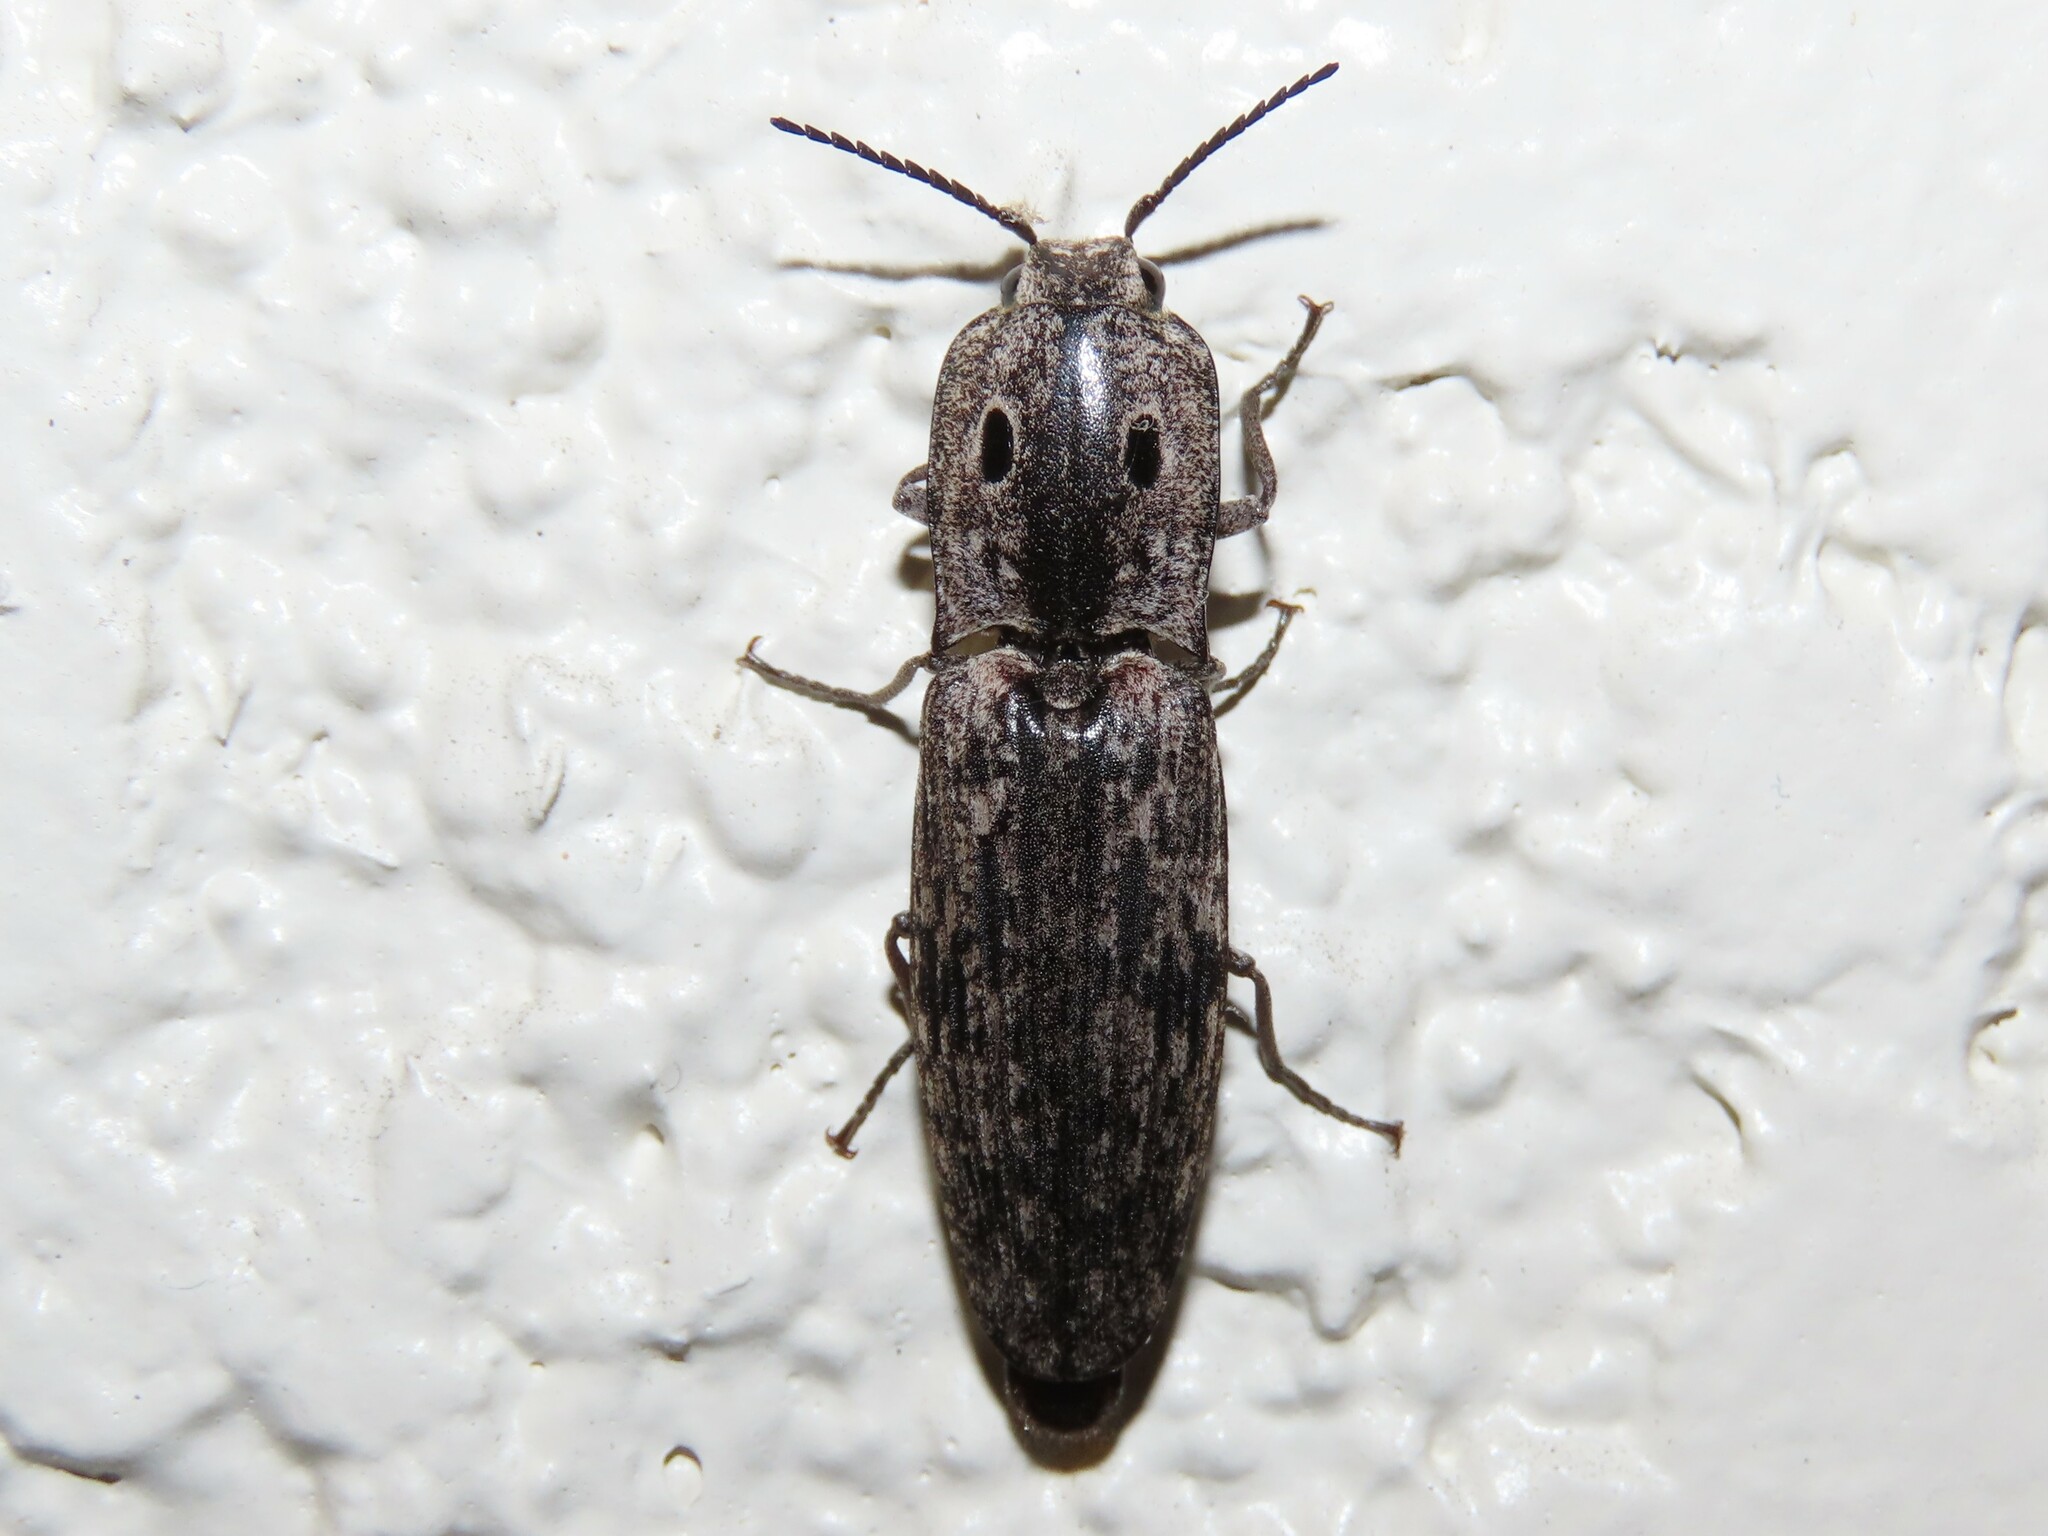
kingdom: Animalia
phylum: Arthropoda
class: Insecta
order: Coleoptera
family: Elateridae
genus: Alaus
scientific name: Alaus myops
